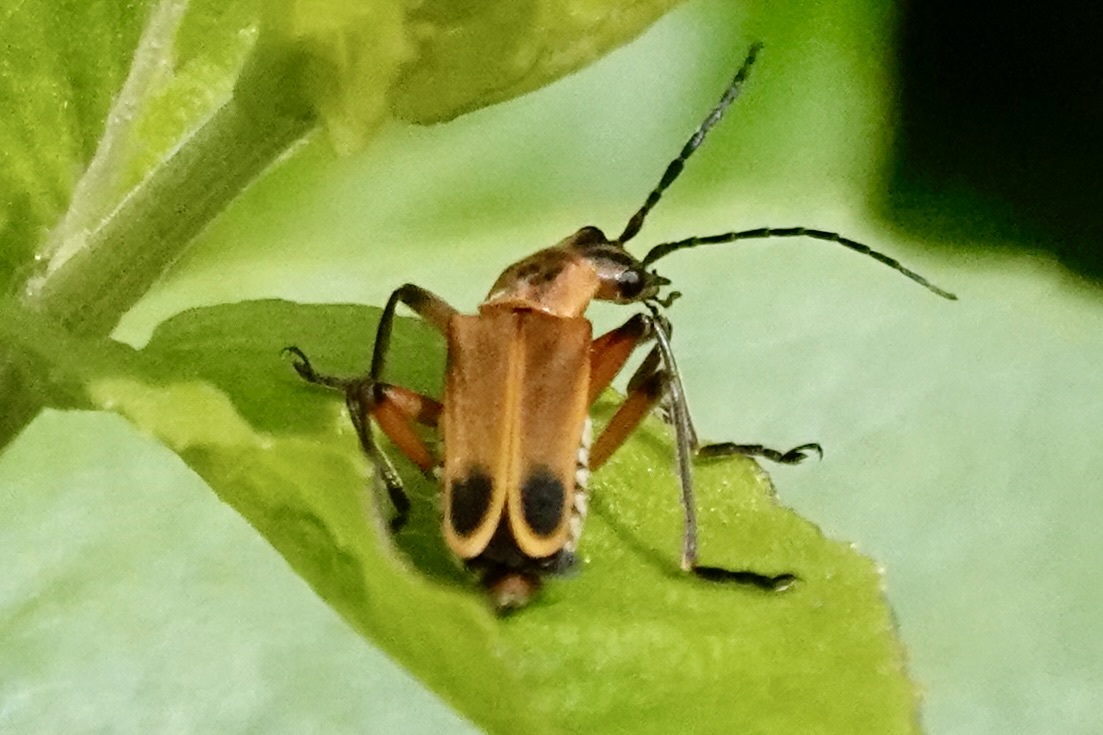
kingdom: Animalia
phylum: Arthropoda
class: Insecta
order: Coleoptera
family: Cantharidae
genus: Chauliognathus
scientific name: Chauliognathus marginatus
